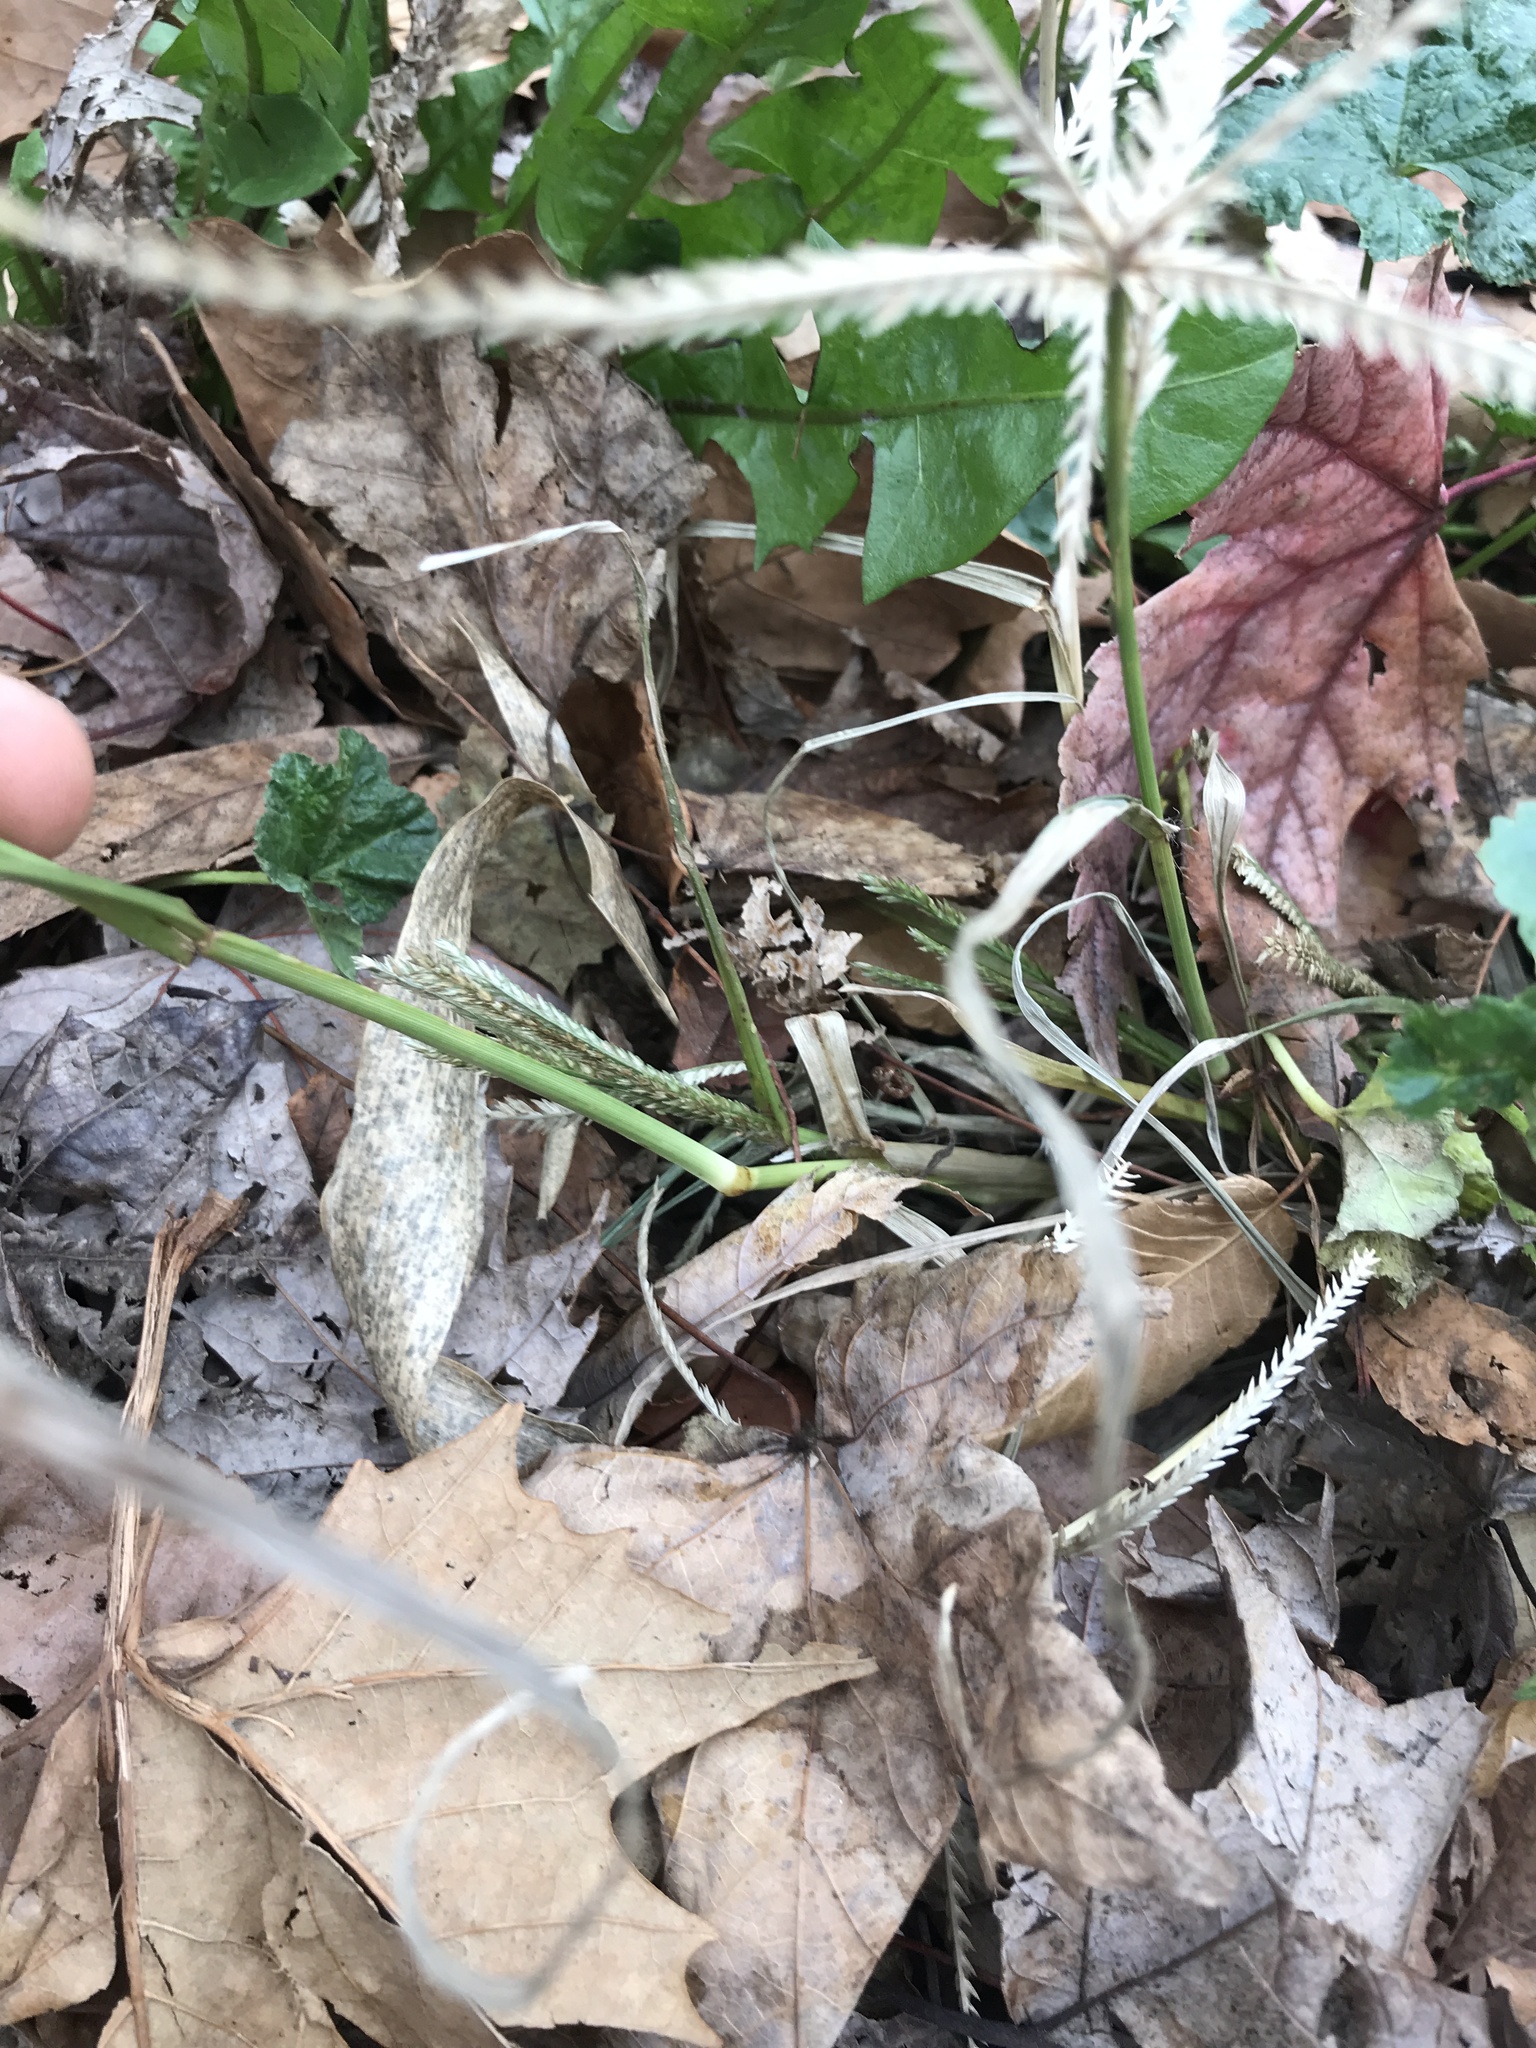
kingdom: Plantae
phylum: Tracheophyta
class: Liliopsida
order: Poales
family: Poaceae
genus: Eleusine
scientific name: Eleusine indica
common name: Yard-grass
